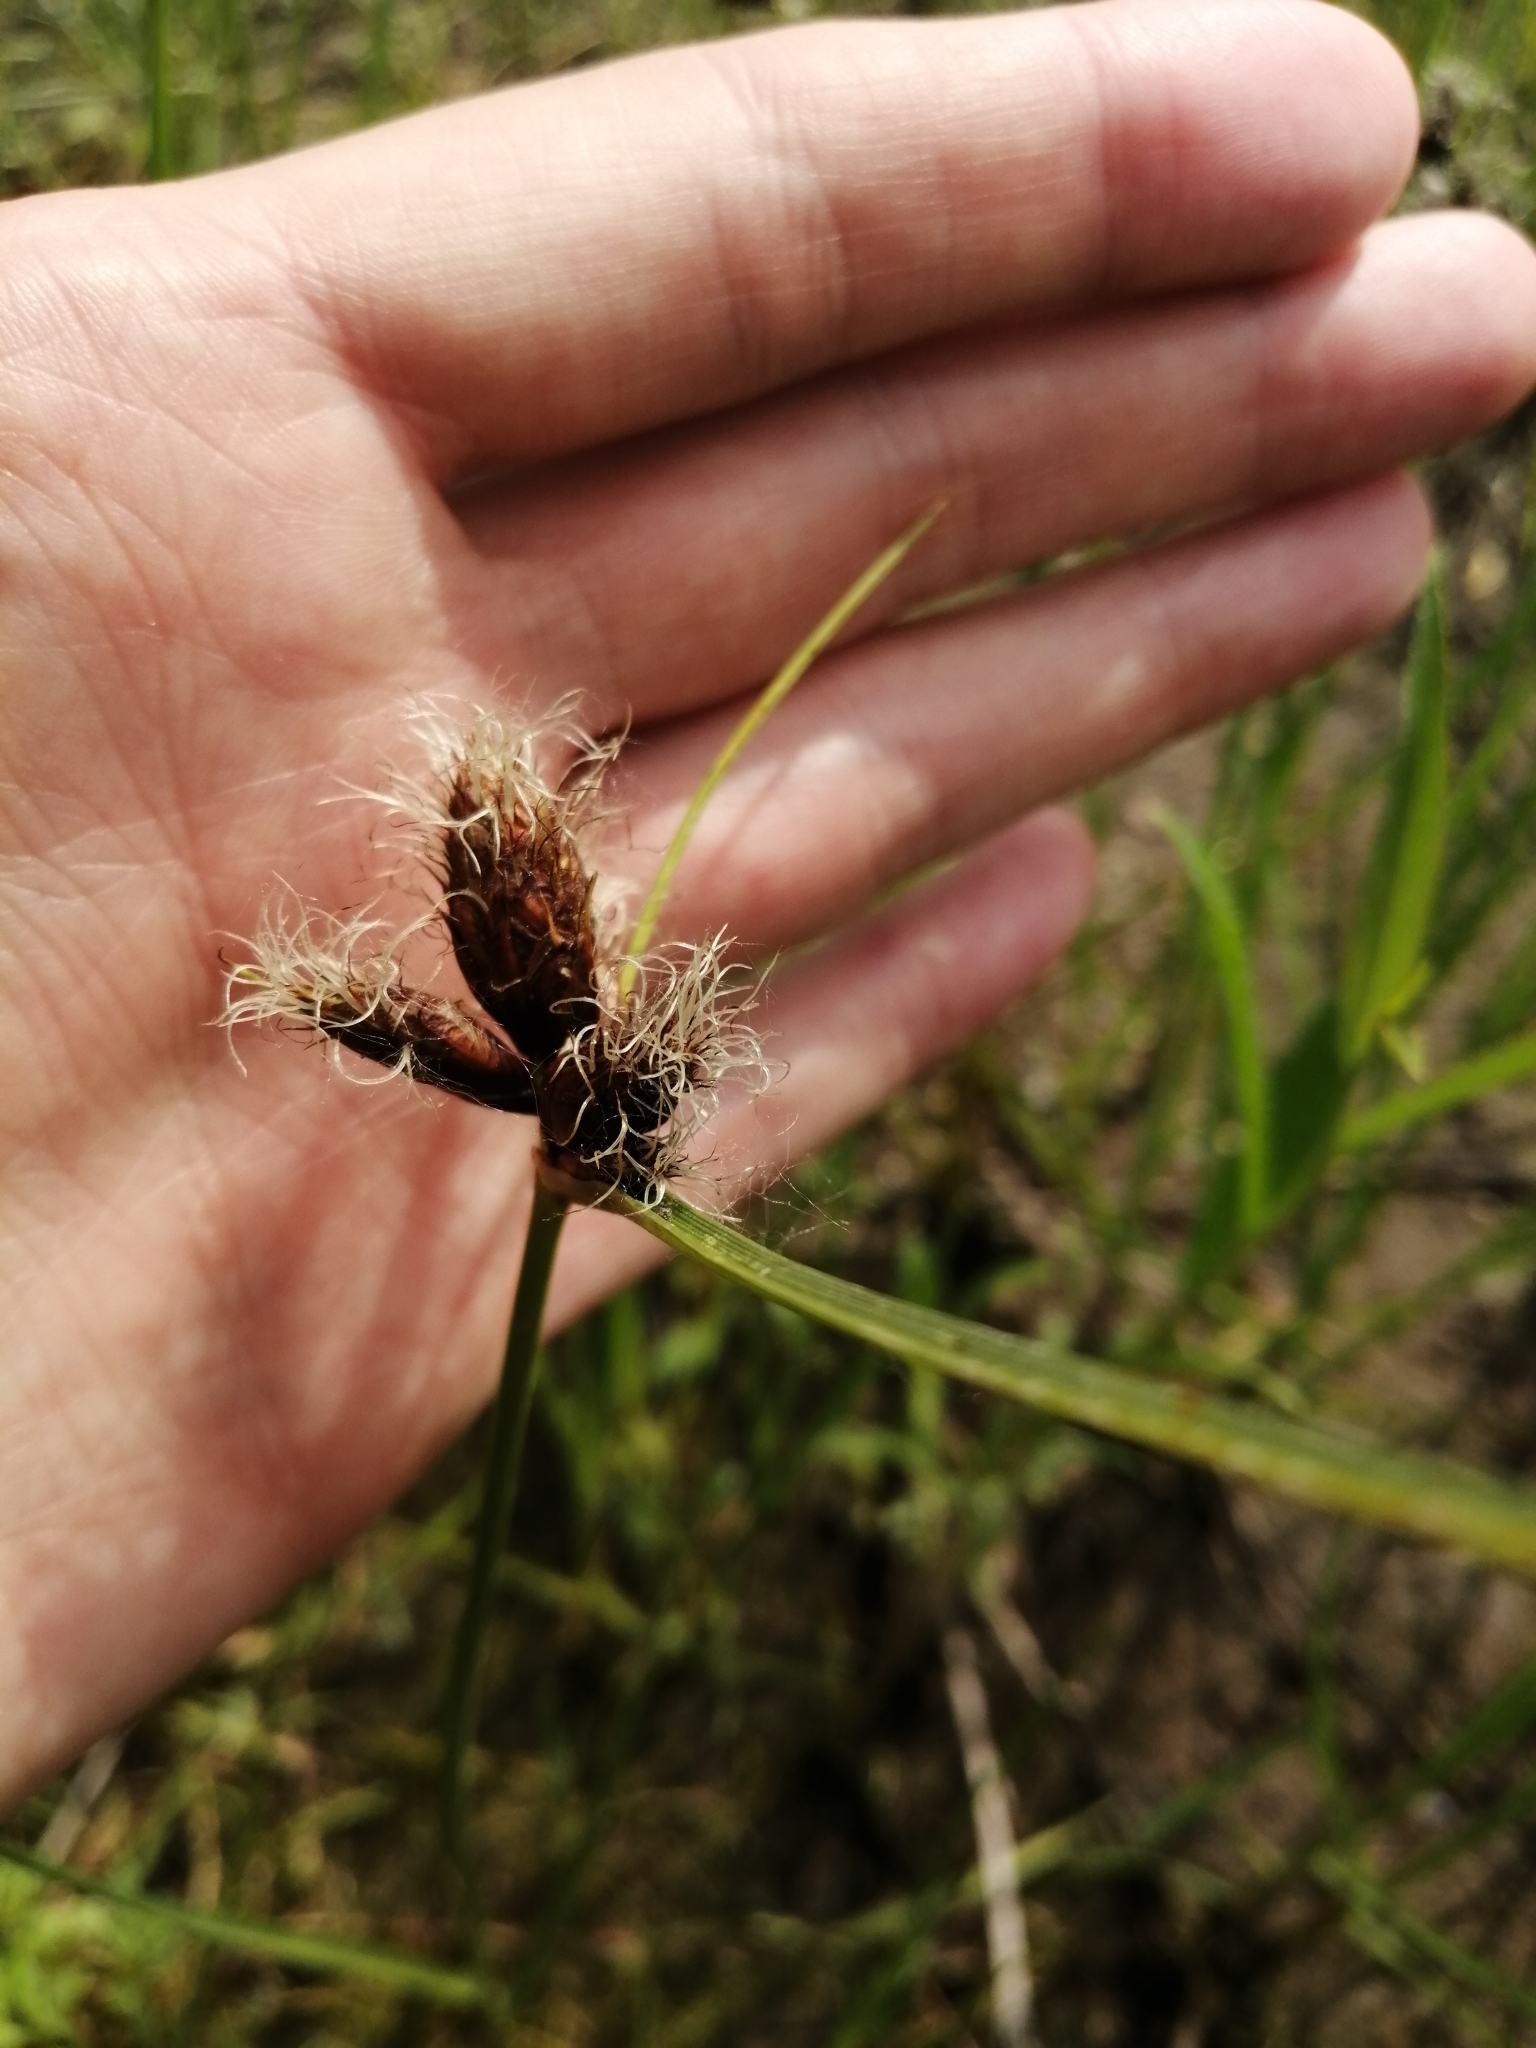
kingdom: Plantae
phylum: Tracheophyta
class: Liliopsida
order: Poales
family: Cyperaceae
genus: Bolboschoenus
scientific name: Bolboschoenus maritimus
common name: Sea club-rush
